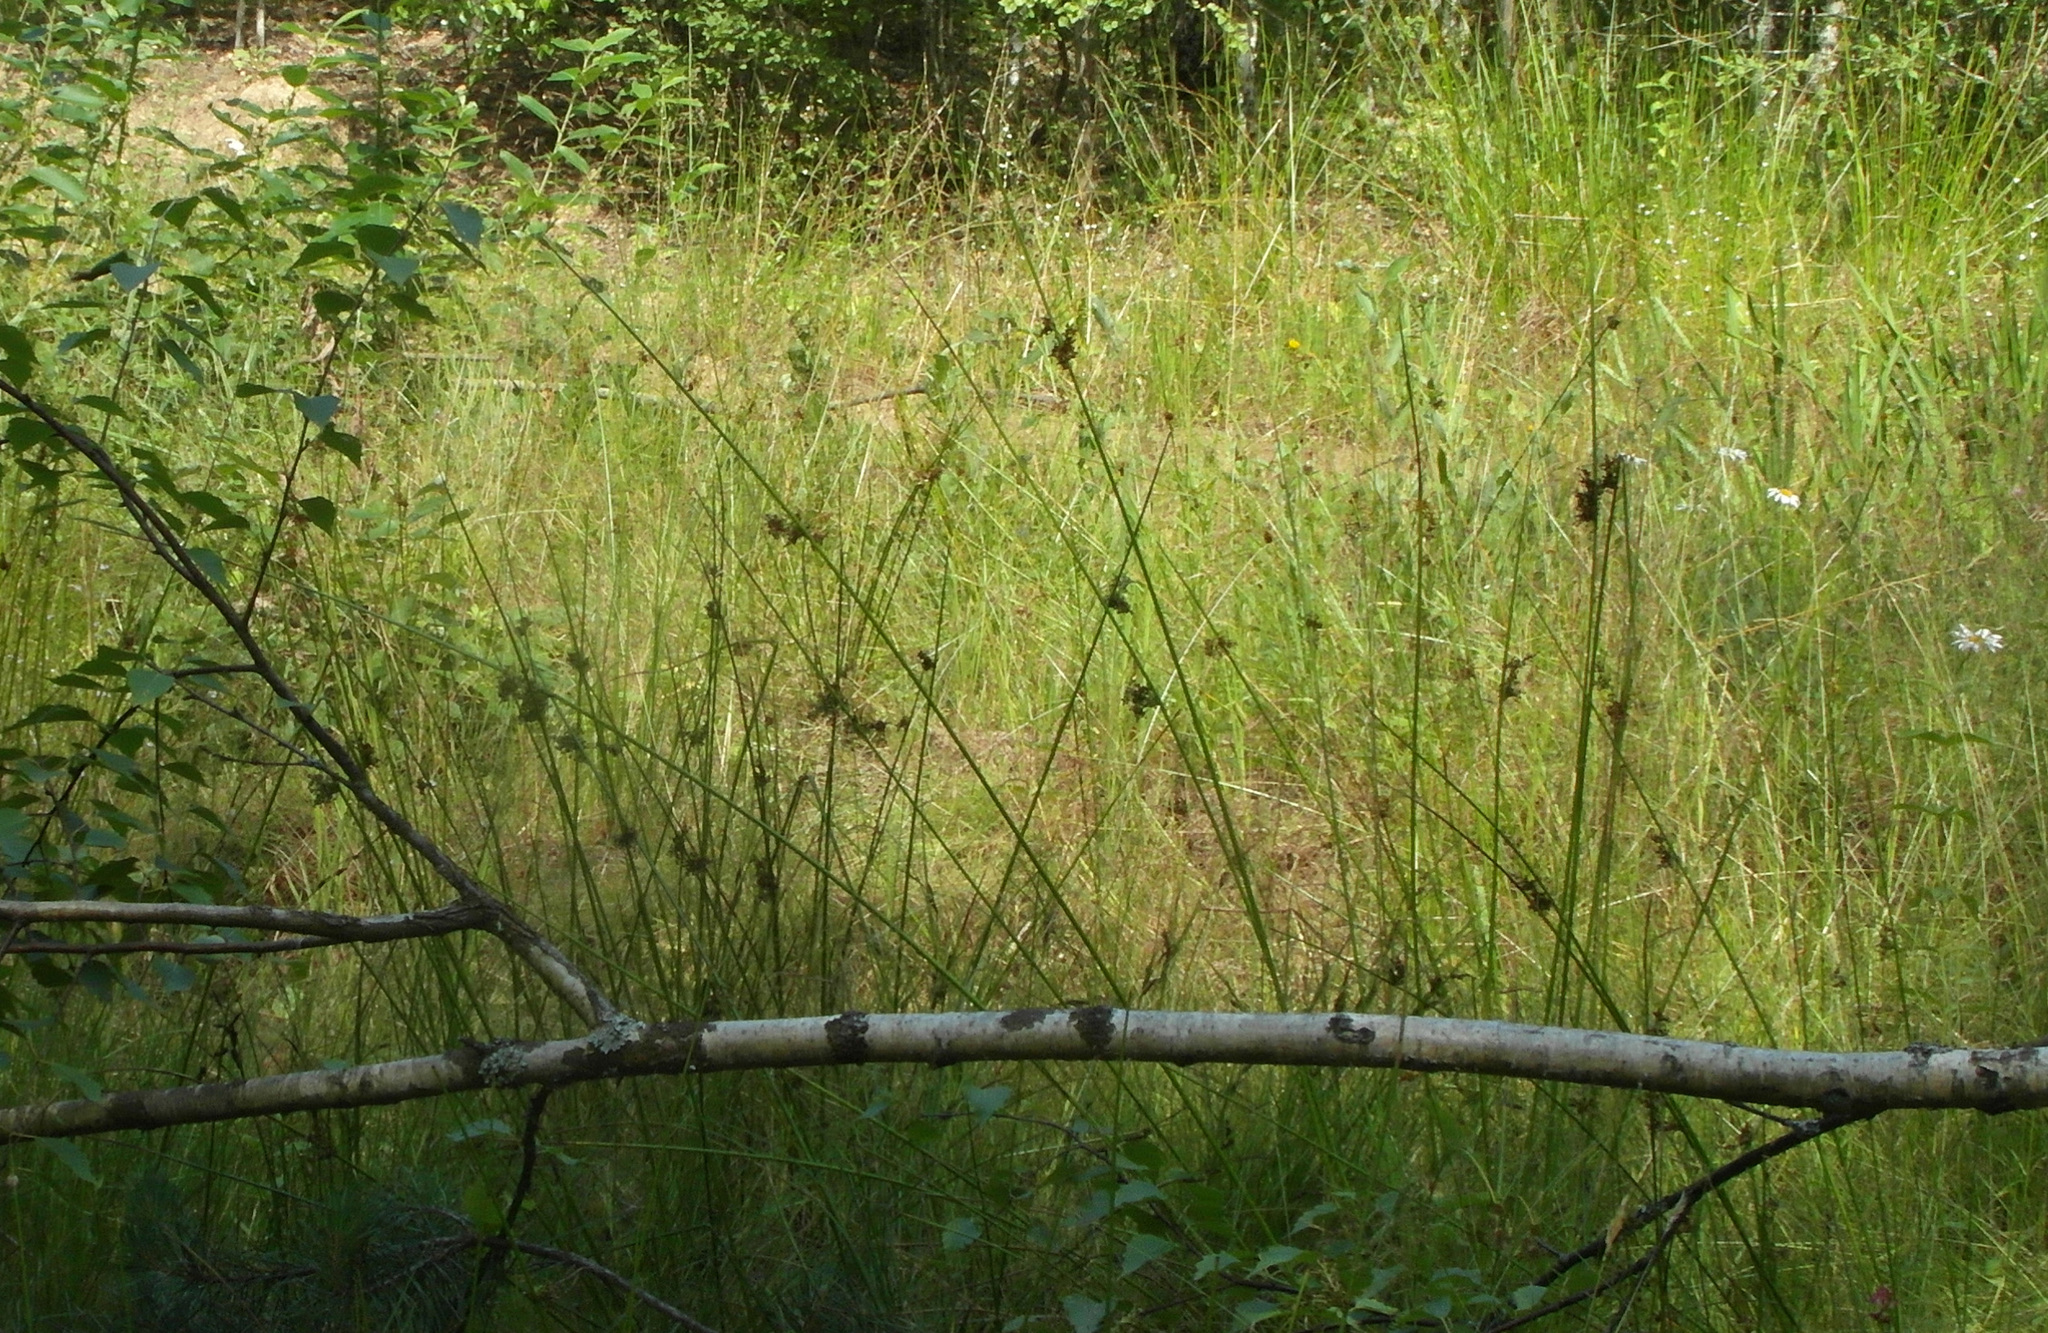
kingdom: Plantae
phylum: Tracheophyta
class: Liliopsida
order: Poales
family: Juncaceae
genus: Juncus
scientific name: Juncus effusus
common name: Soft rush
